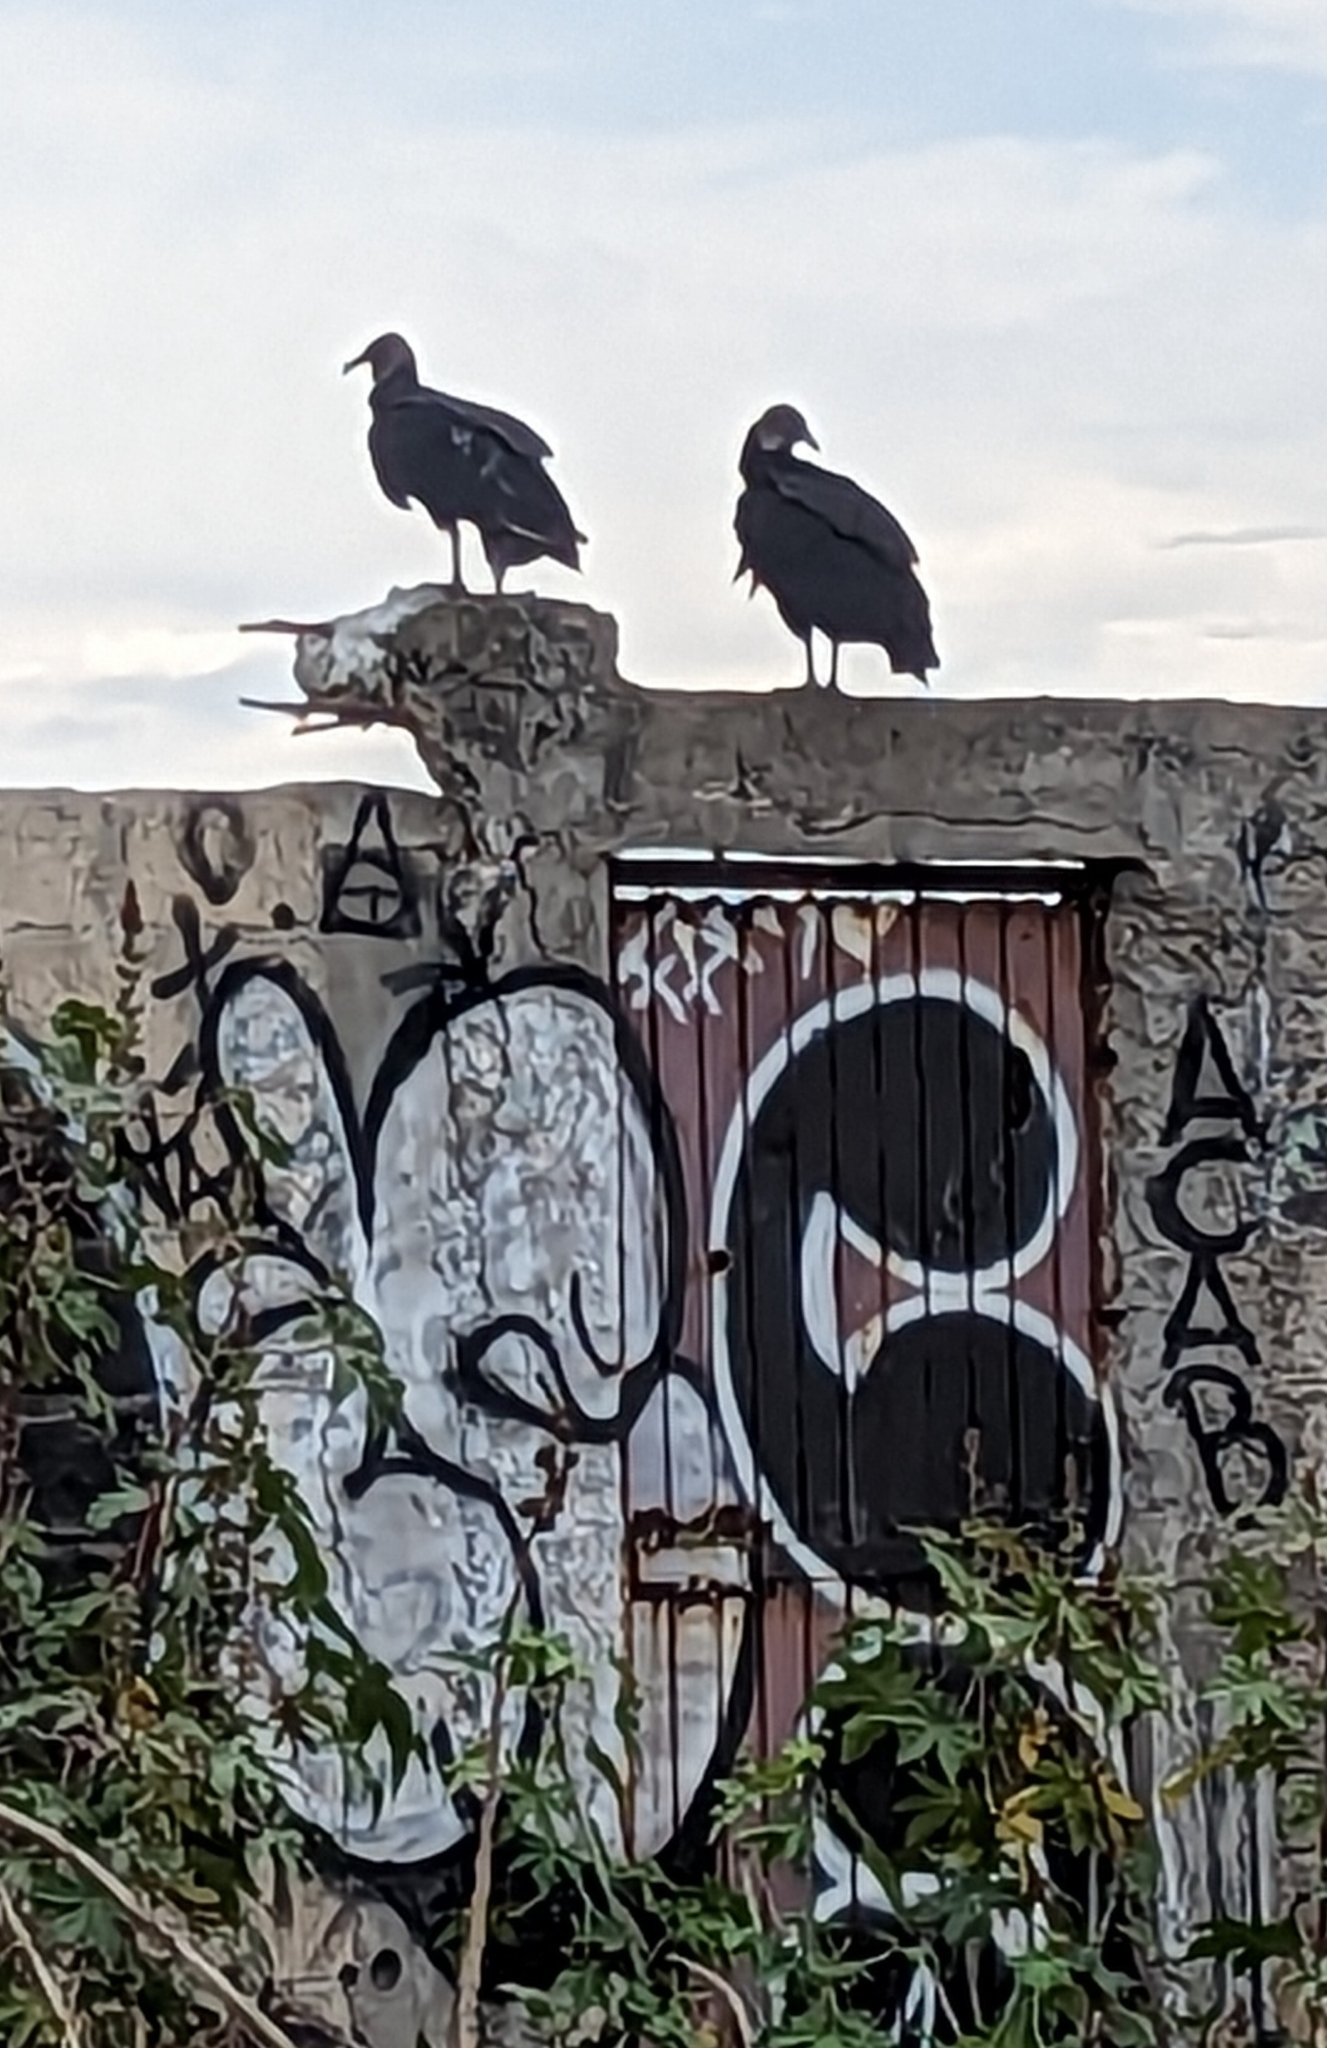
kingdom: Animalia
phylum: Chordata
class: Aves
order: Accipitriformes
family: Cathartidae
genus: Coragyps
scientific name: Coragyps atratus
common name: Black vulture
